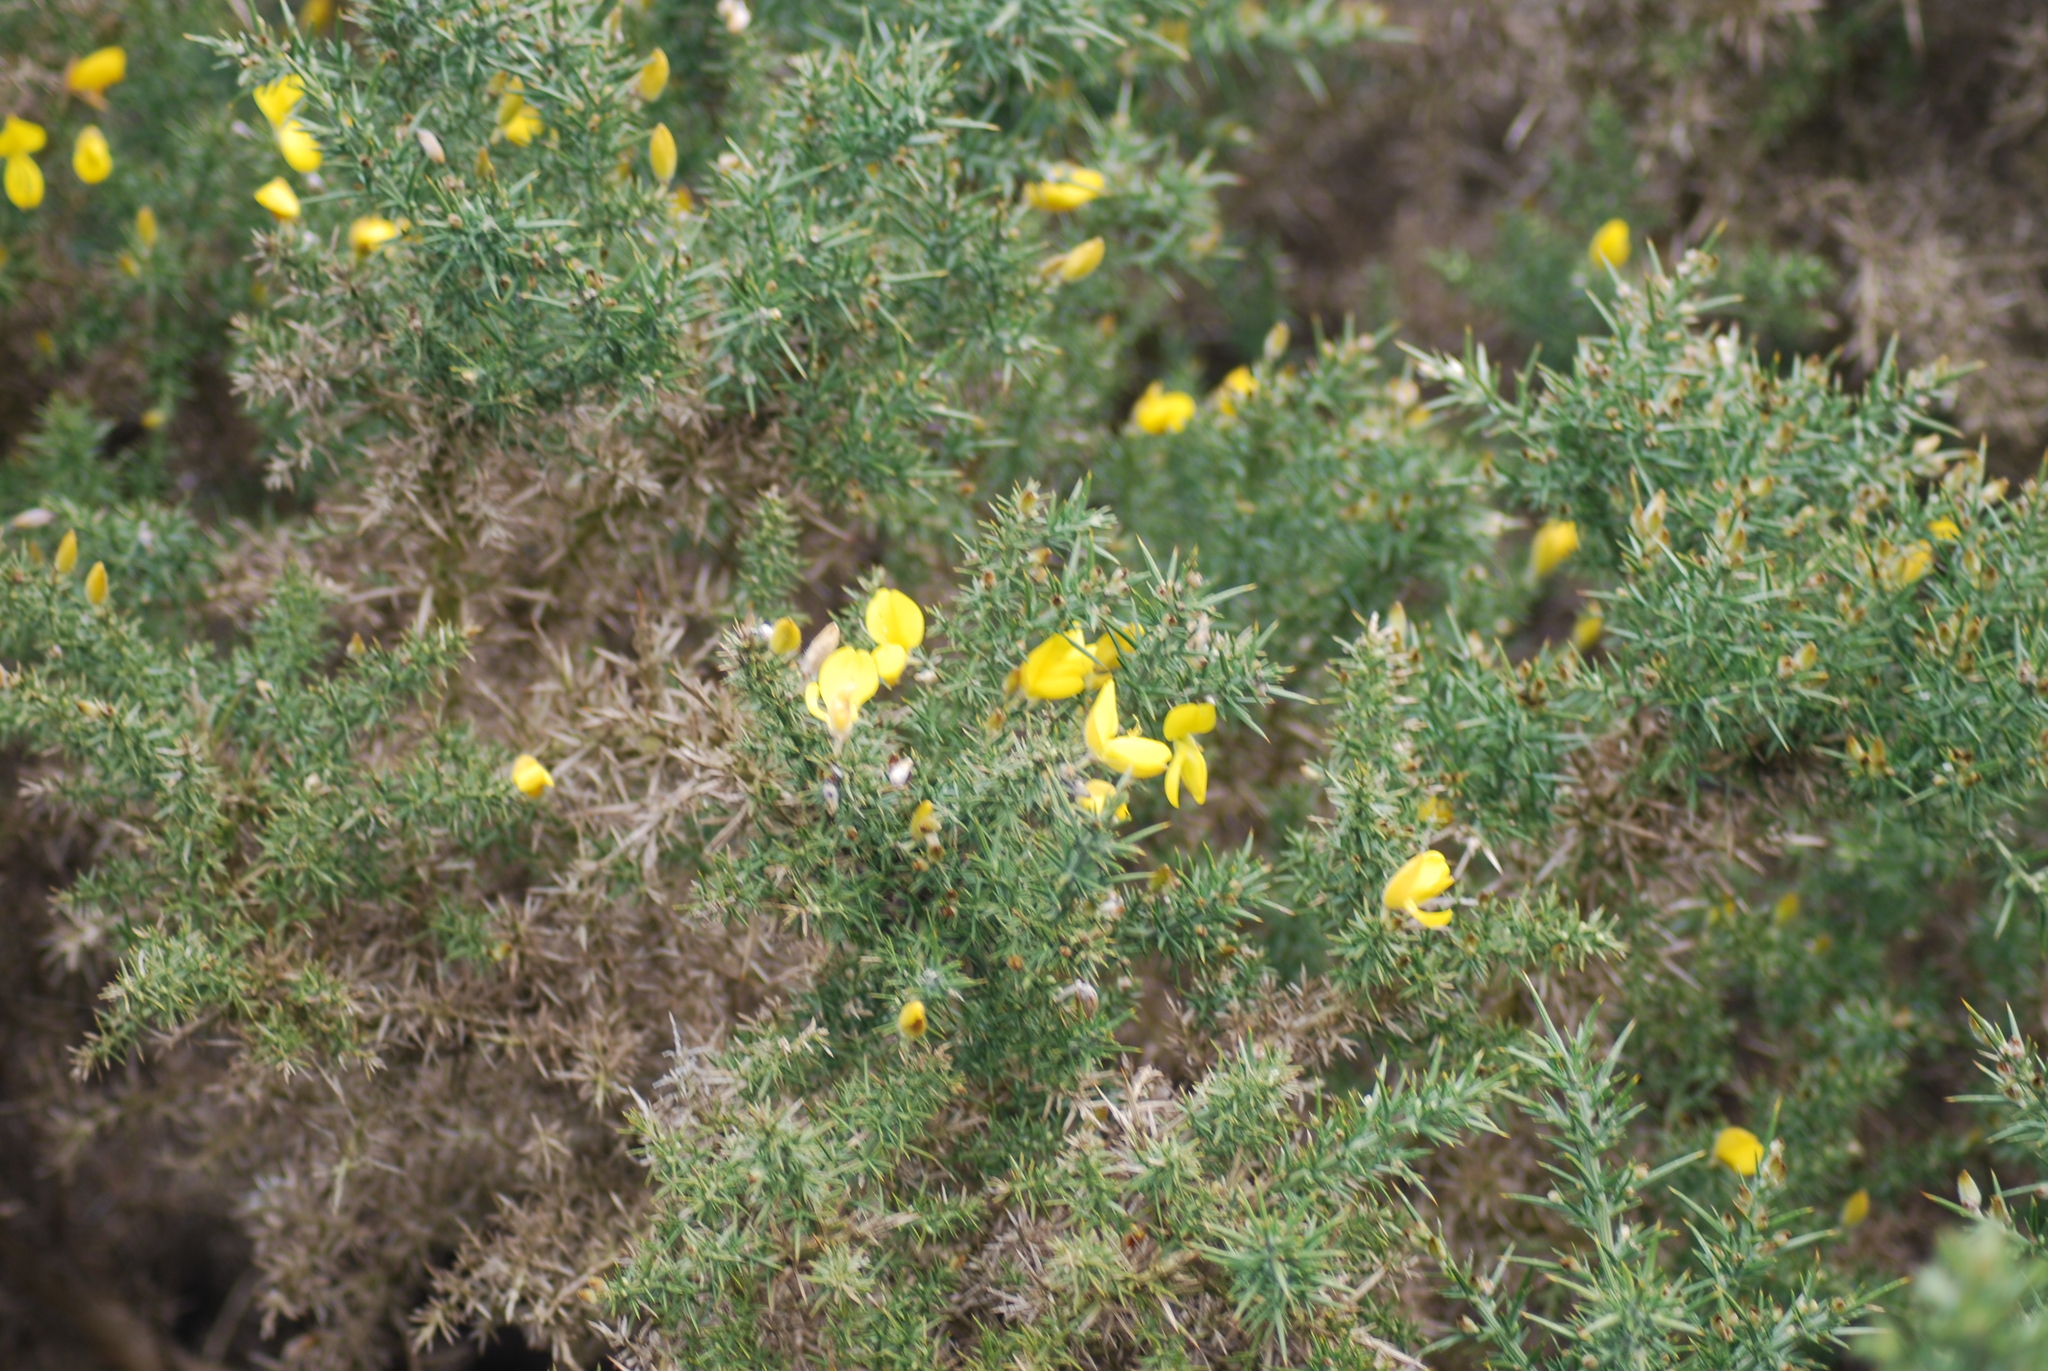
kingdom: Plantae
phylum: Tracheophyta
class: Magnoliopsida
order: Fabales
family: Fabaceae
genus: Ulex
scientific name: Ulex europaeus
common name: Common gorse
